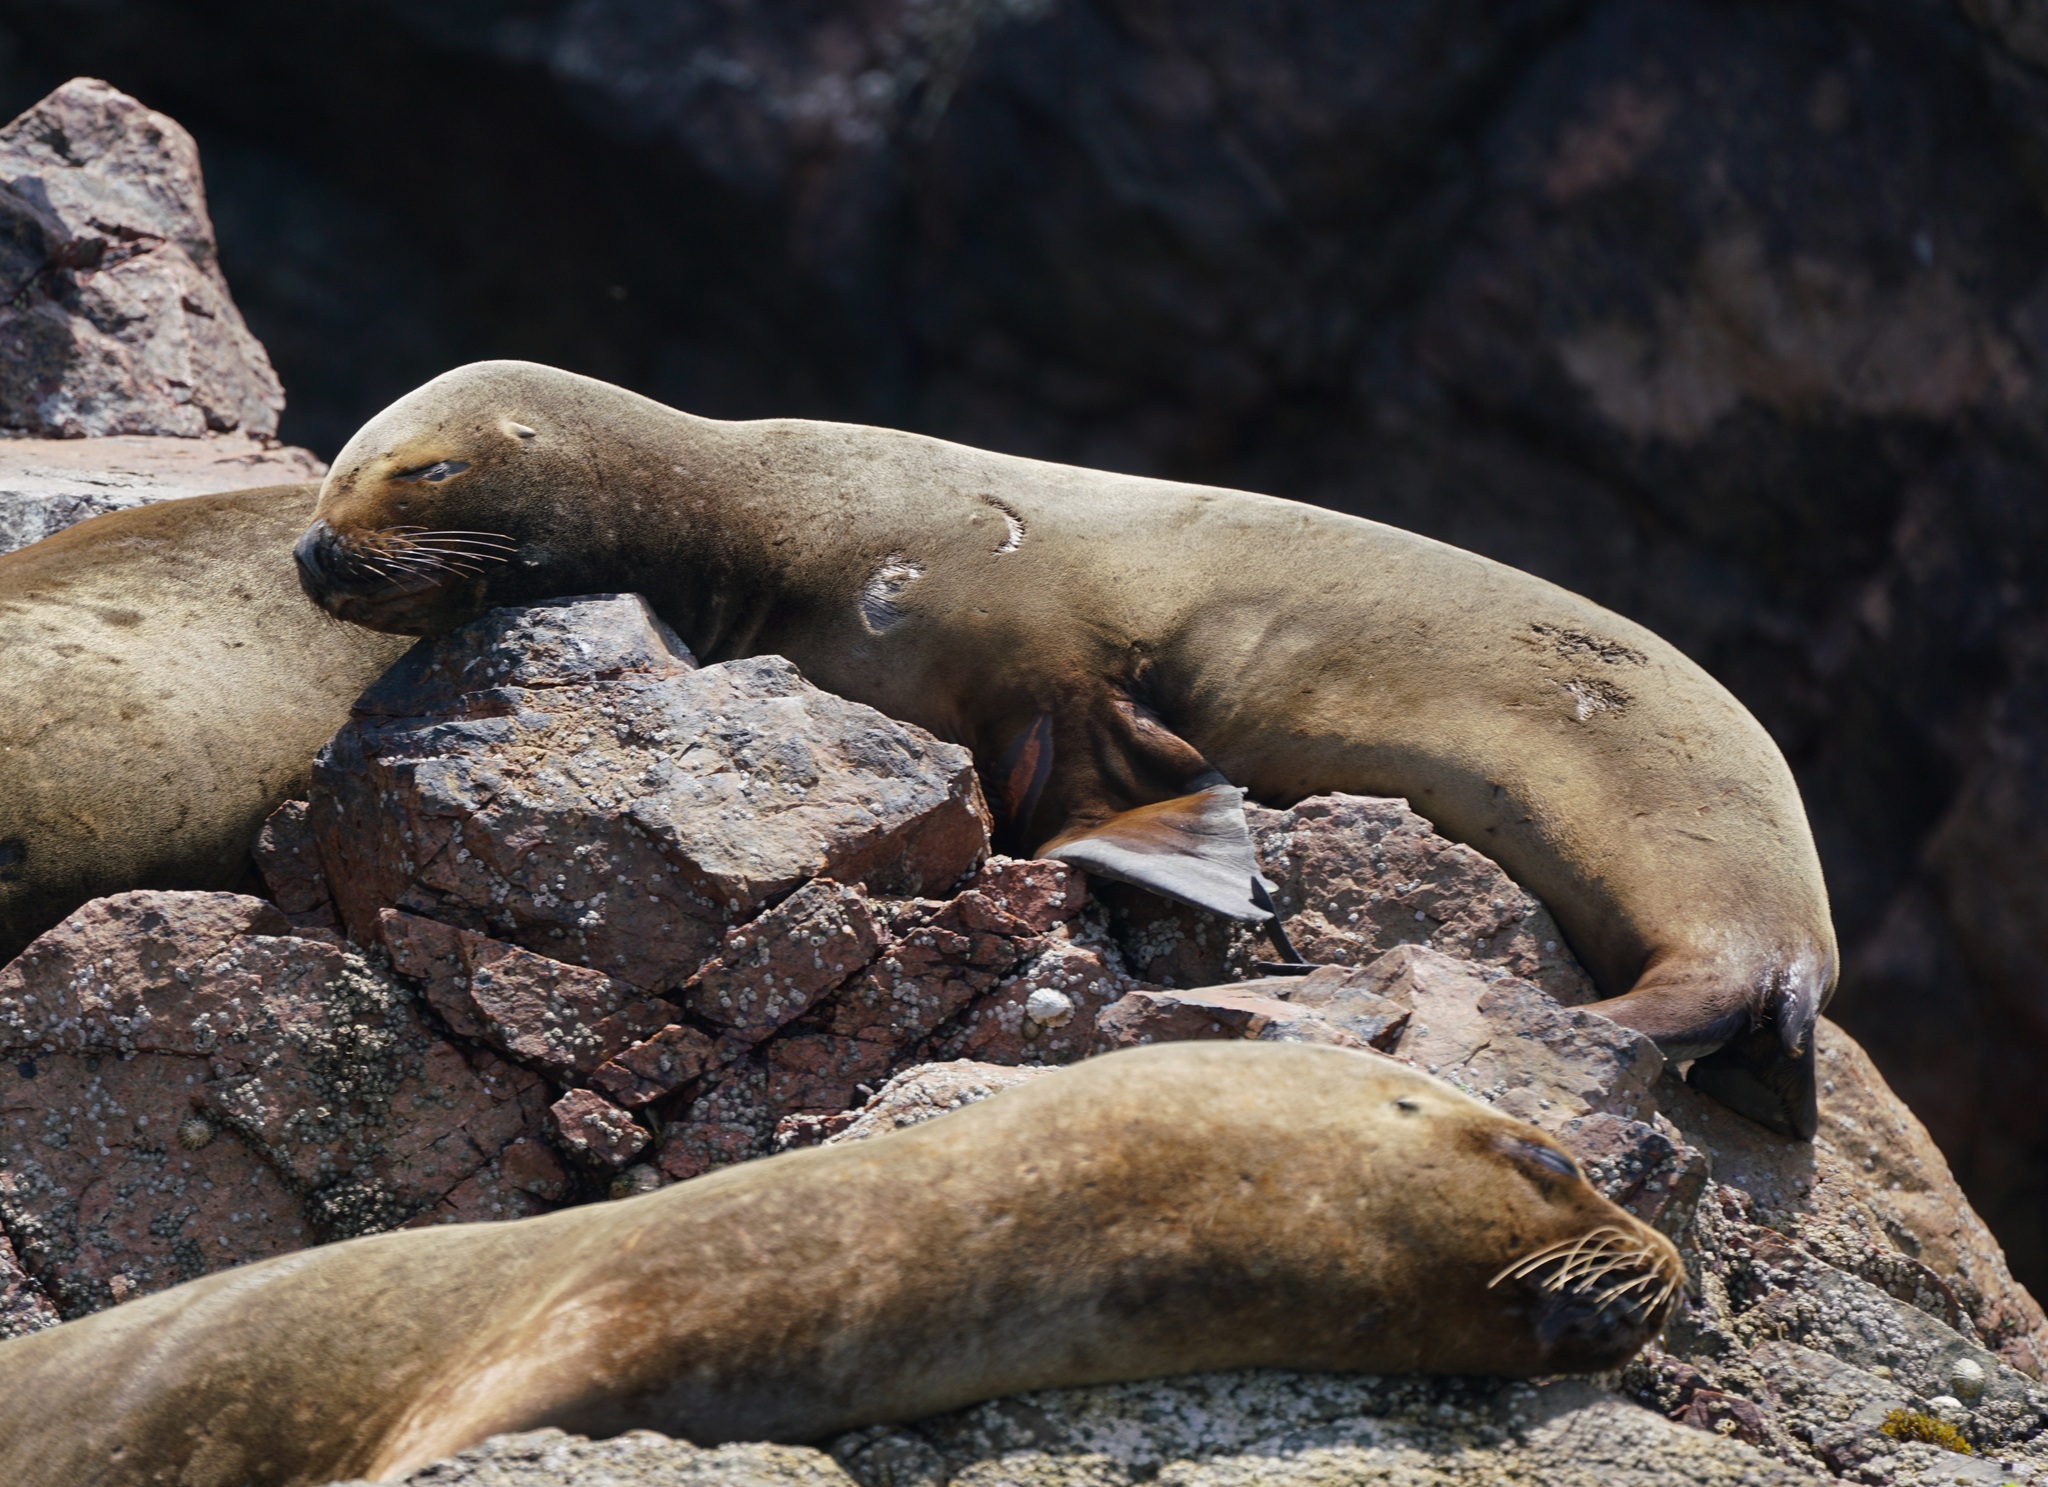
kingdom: Animalia
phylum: Chordata
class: Mammalia
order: Carnivora
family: Otariidae
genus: Otaria
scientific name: Otaria byronia
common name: South american sea lion
